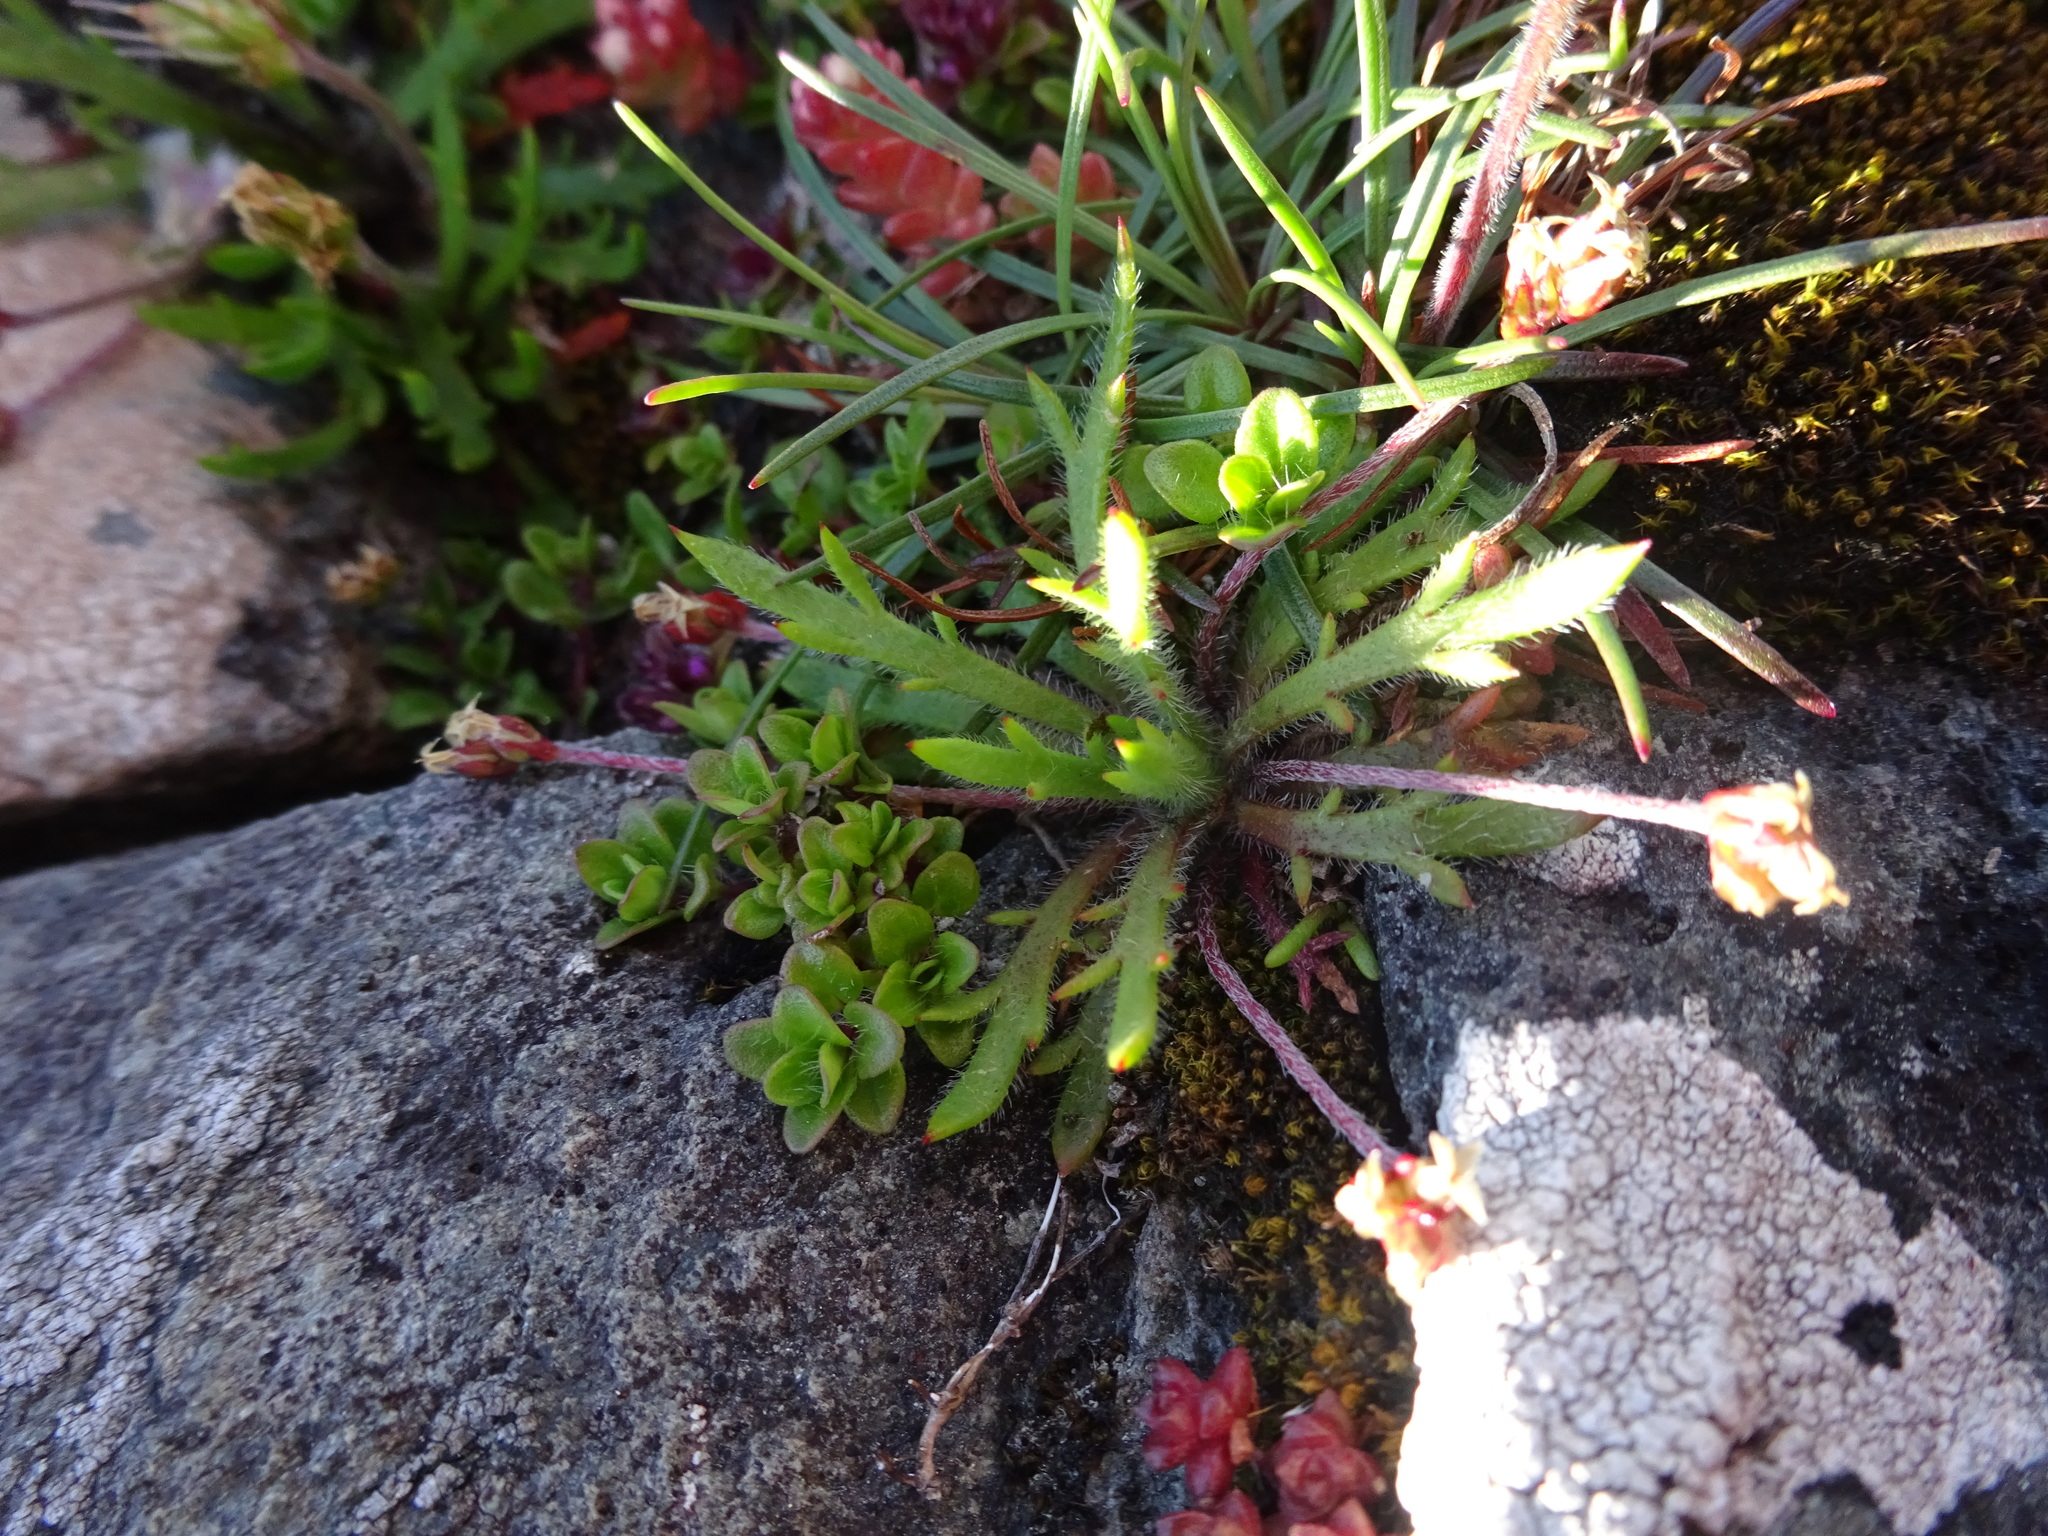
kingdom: Plantae
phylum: Tracheophyta
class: Magnoliopsida
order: Lamiales
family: Plantaginaceae
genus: Plantago
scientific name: Plantago coronopus
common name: Buck's-horn plantain
